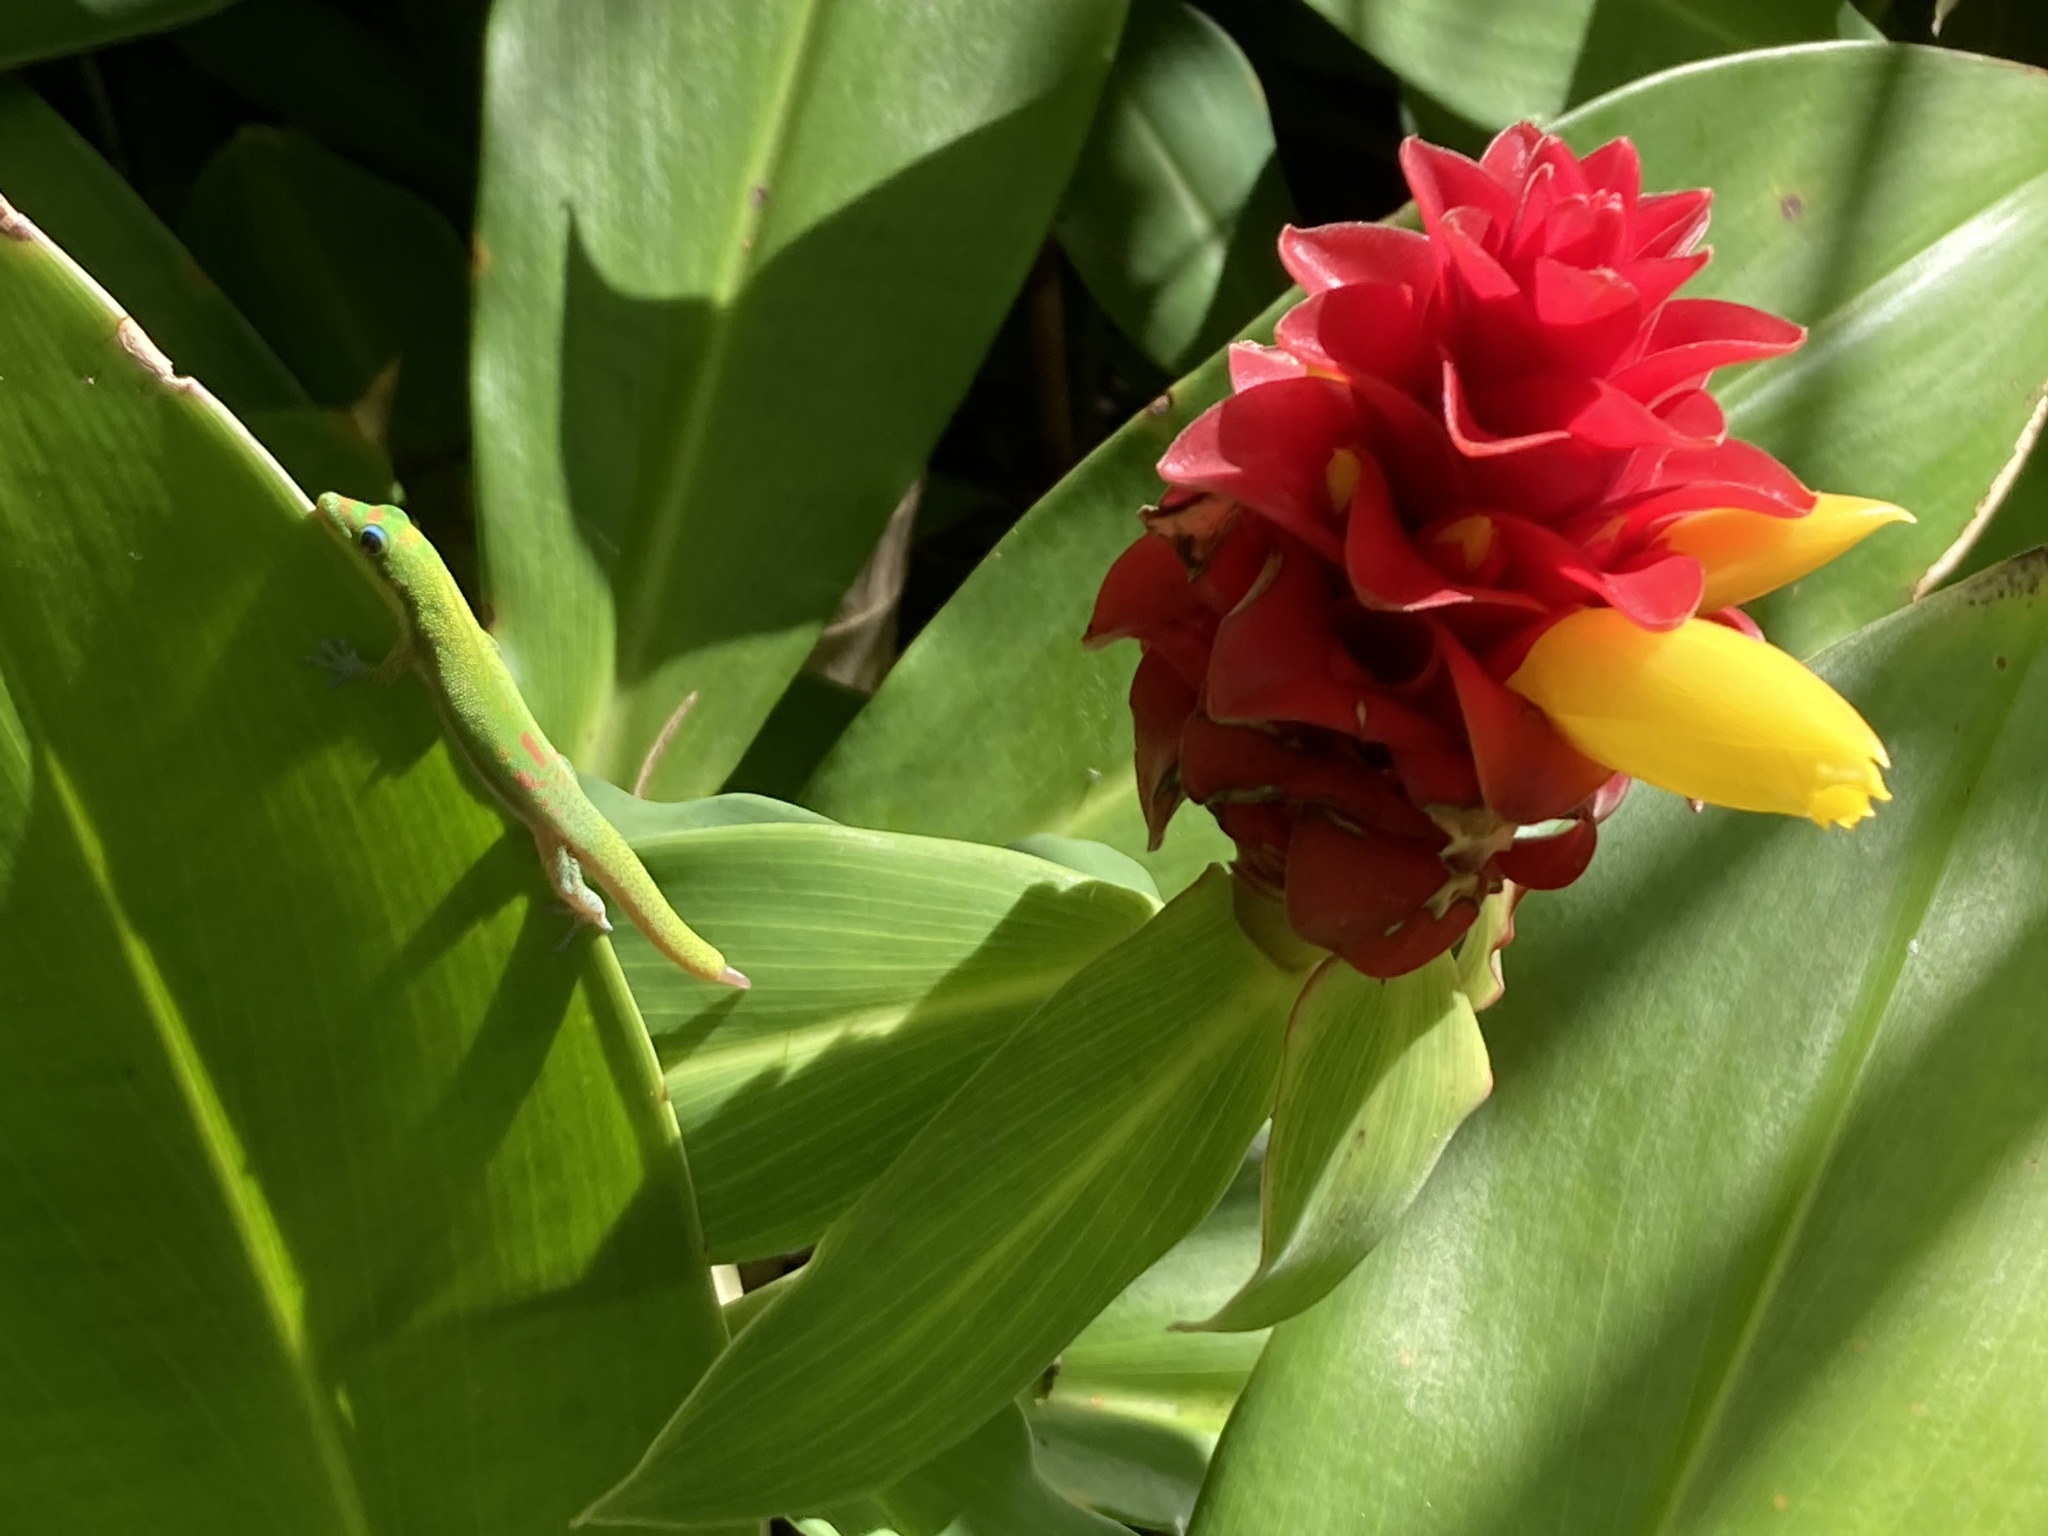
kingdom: Animalia
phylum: Chordata
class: Squamata
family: Gekkonidae
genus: Phelsuma
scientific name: Phelsuma laticauda
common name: Gold dust day gecko
